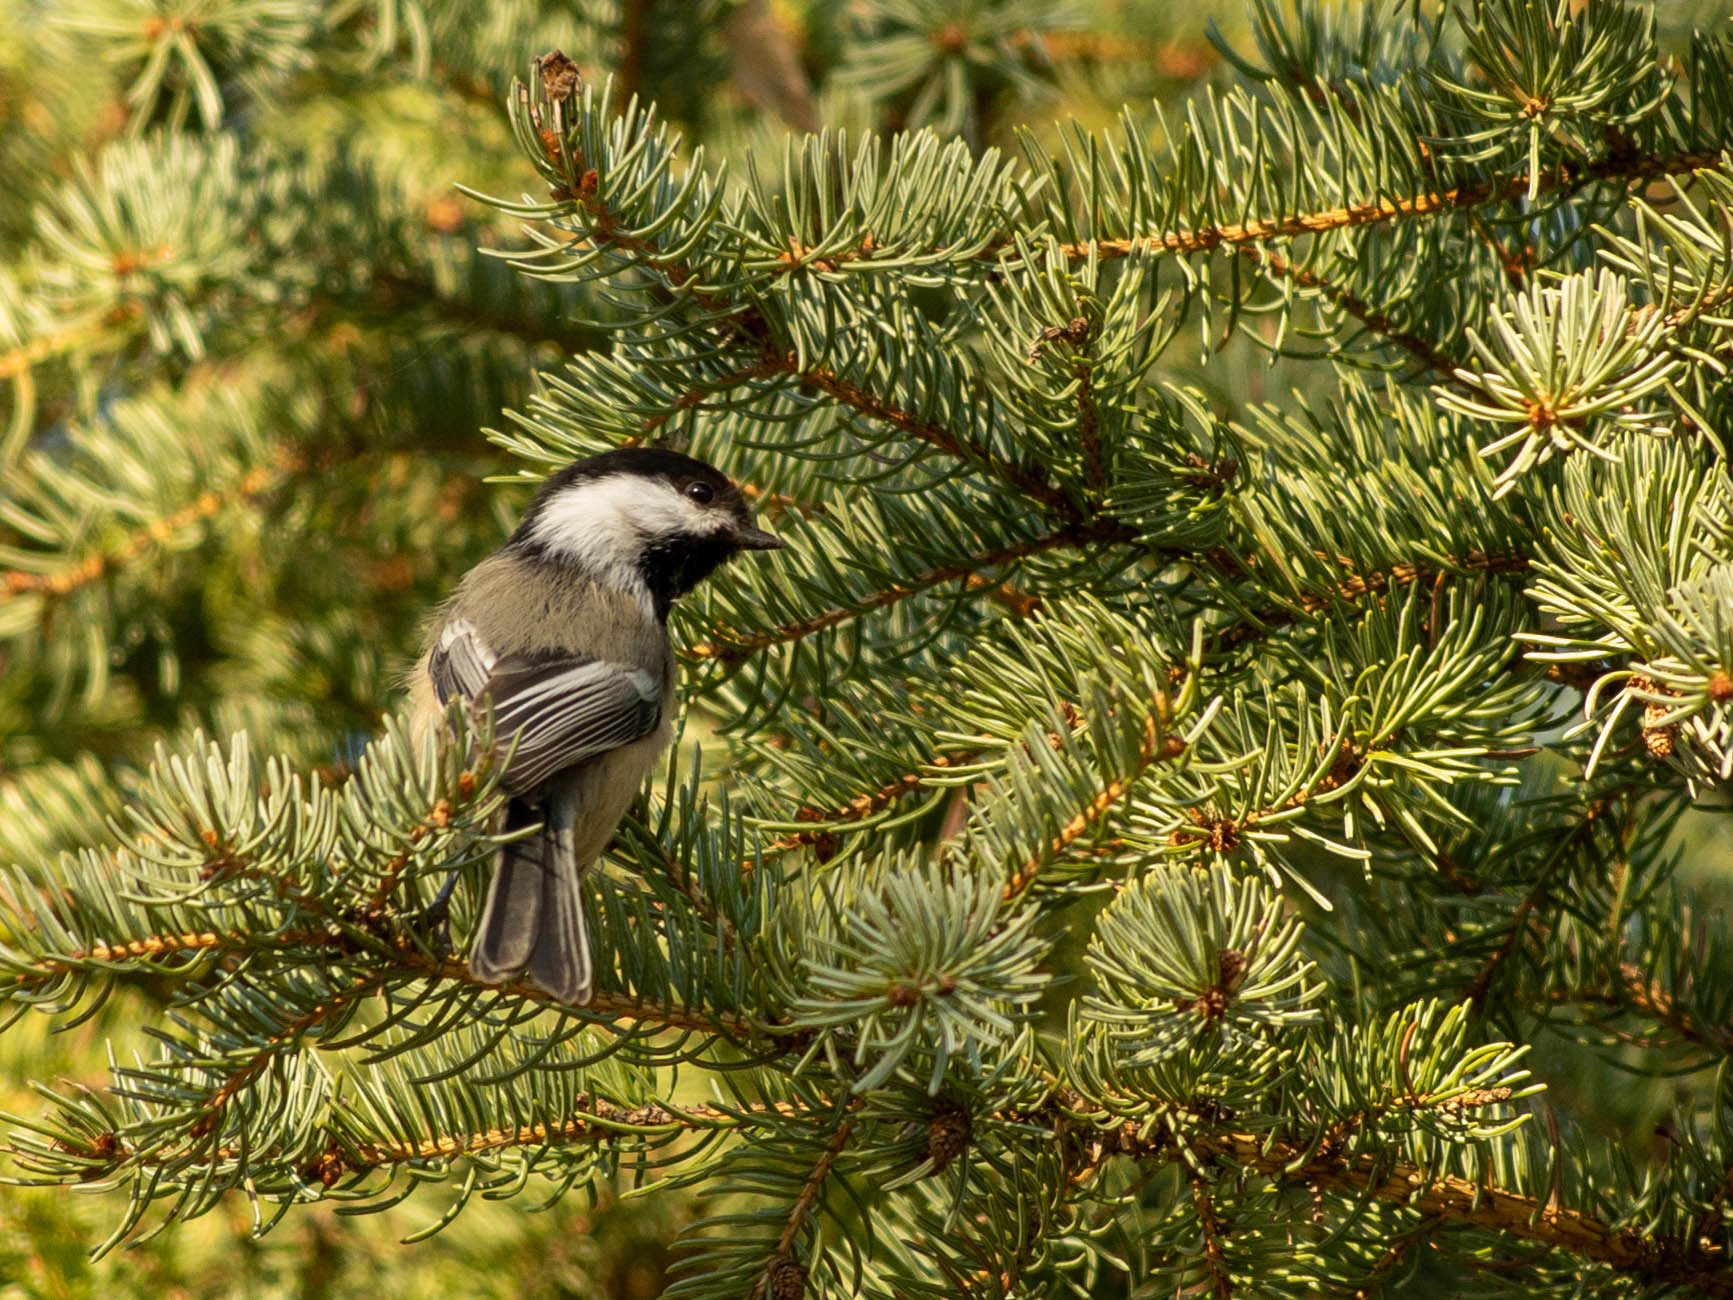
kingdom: Animalia
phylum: Chordata
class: Aves
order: Passeriformes
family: Paridae
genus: Poecile
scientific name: Poecile atricapillus
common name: Black-capped chickadee
